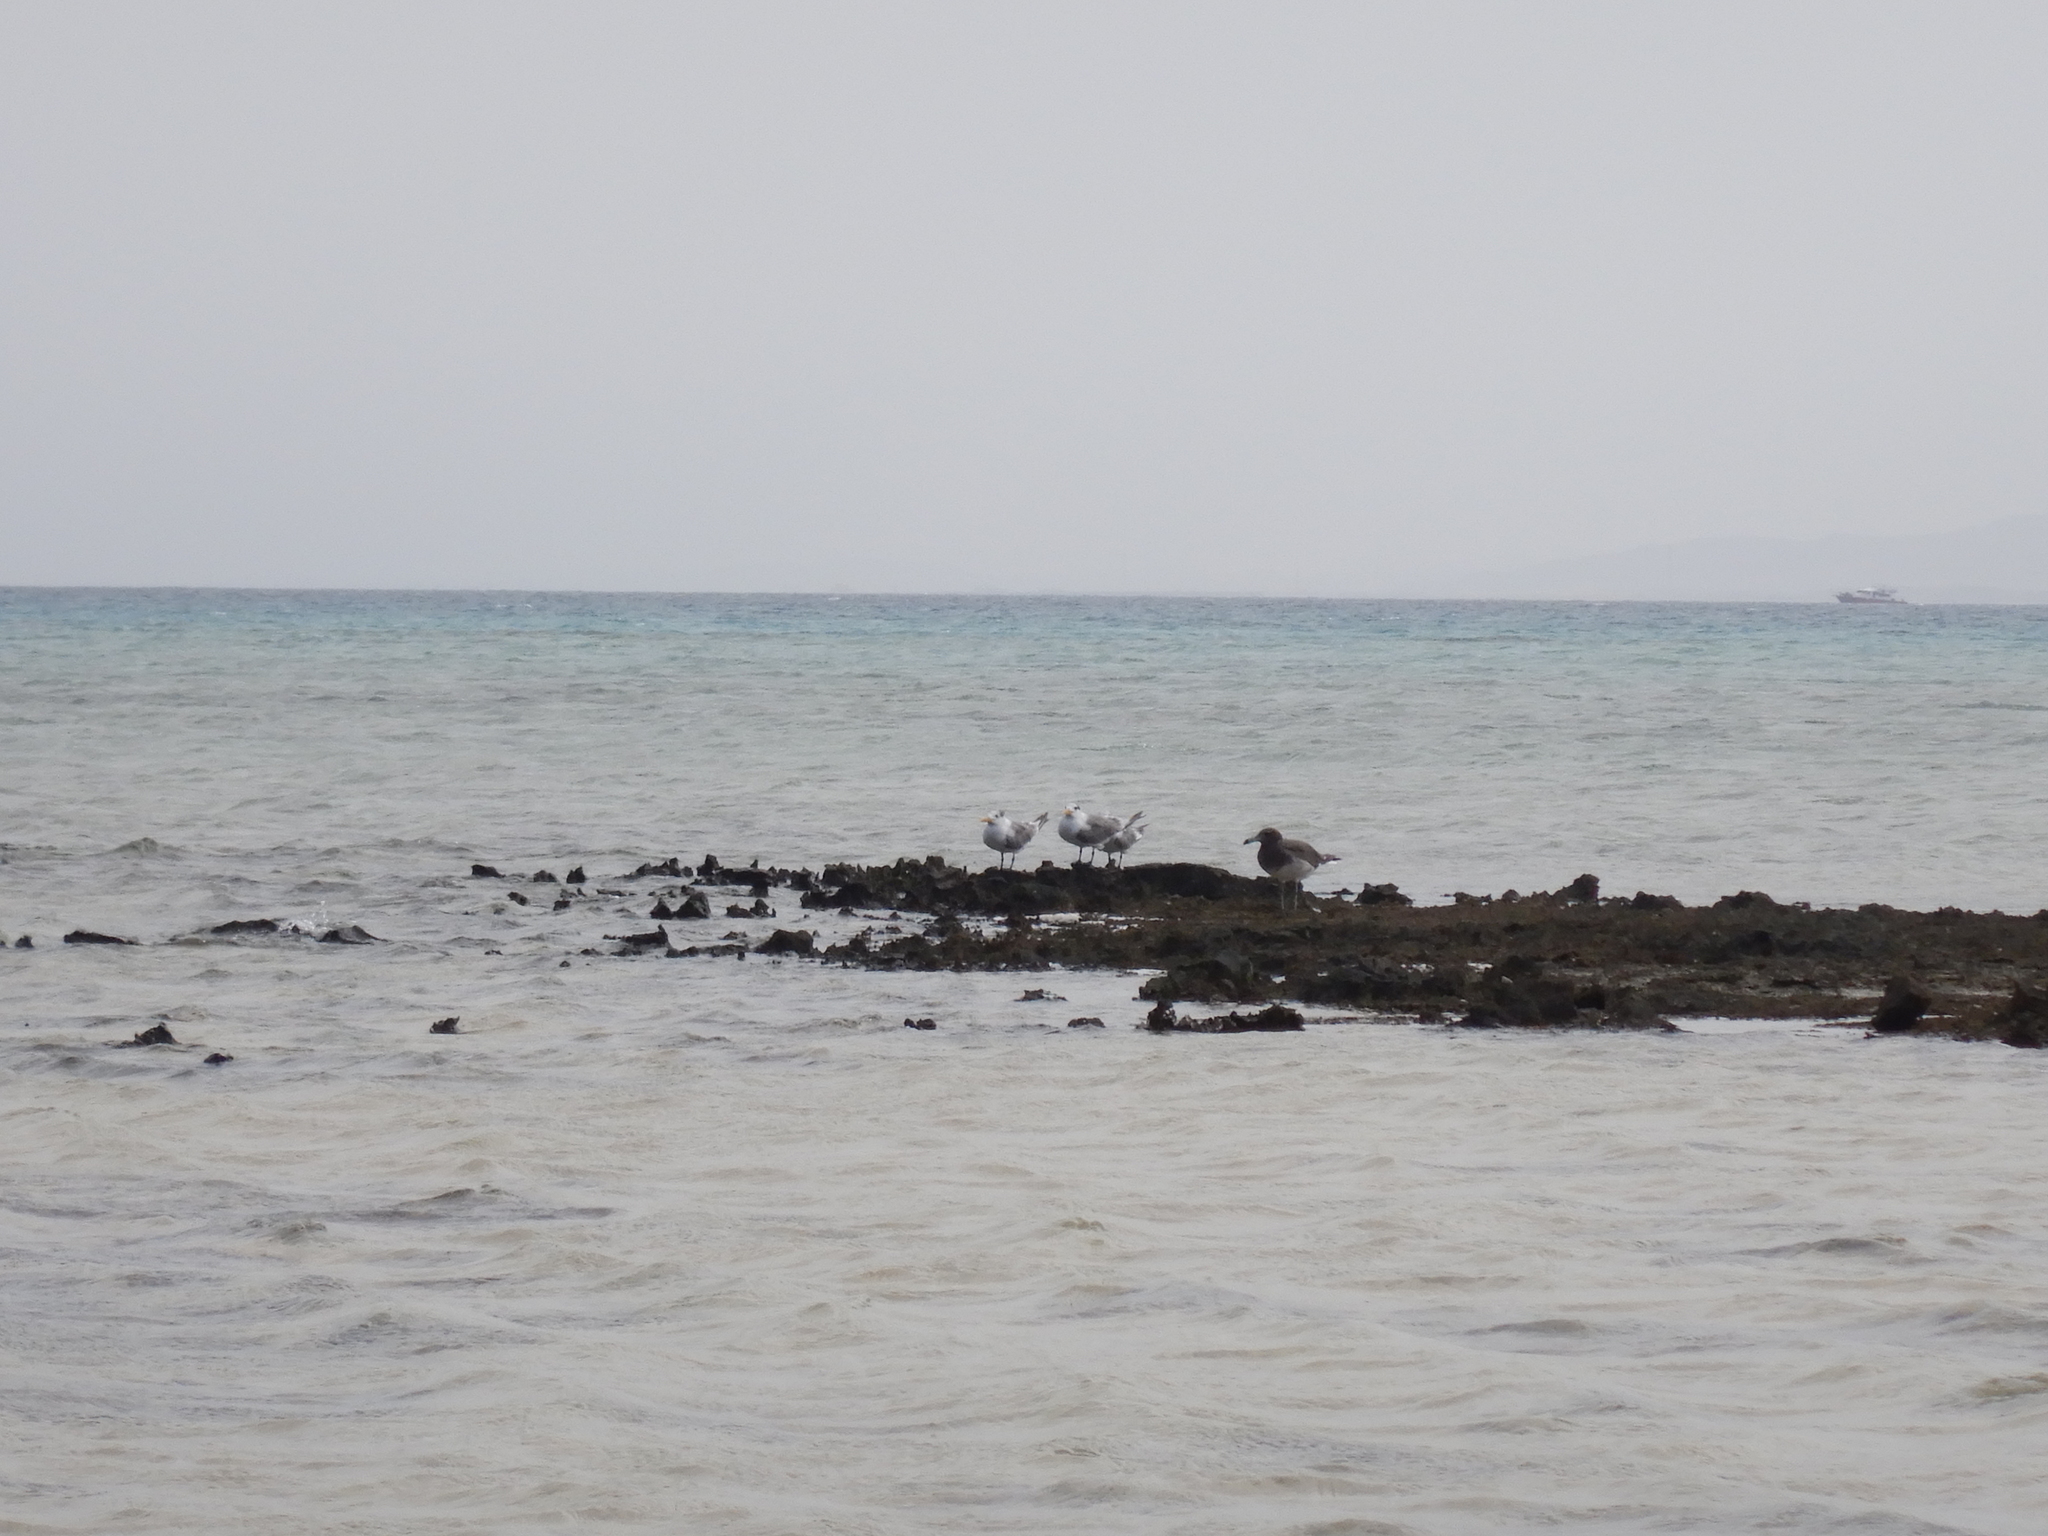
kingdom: Animalia
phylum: Chordata
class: Aves
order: Charadriiformes
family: Laridae
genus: Thalasseus
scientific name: Thalasseus bergii
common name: Greater crested tern
